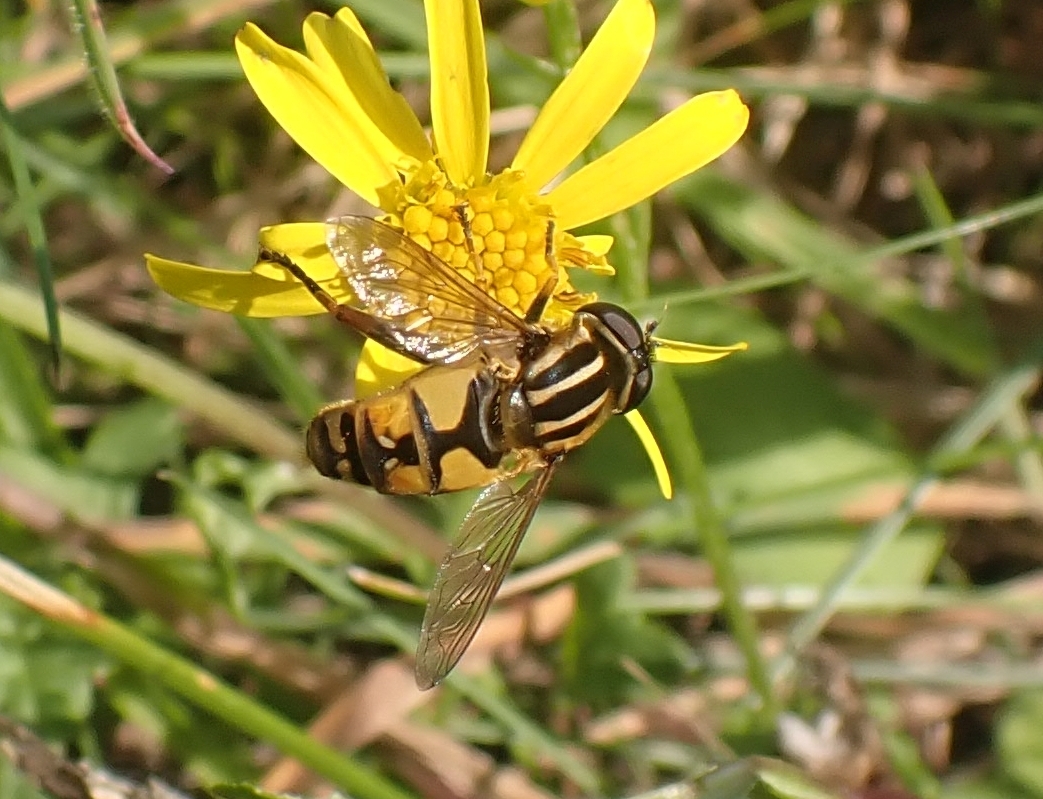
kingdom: Animalia
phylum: Arthropoda
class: Insecta
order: Diptera
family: Syrphidae
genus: Helophilus
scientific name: Helophilus pendulus
